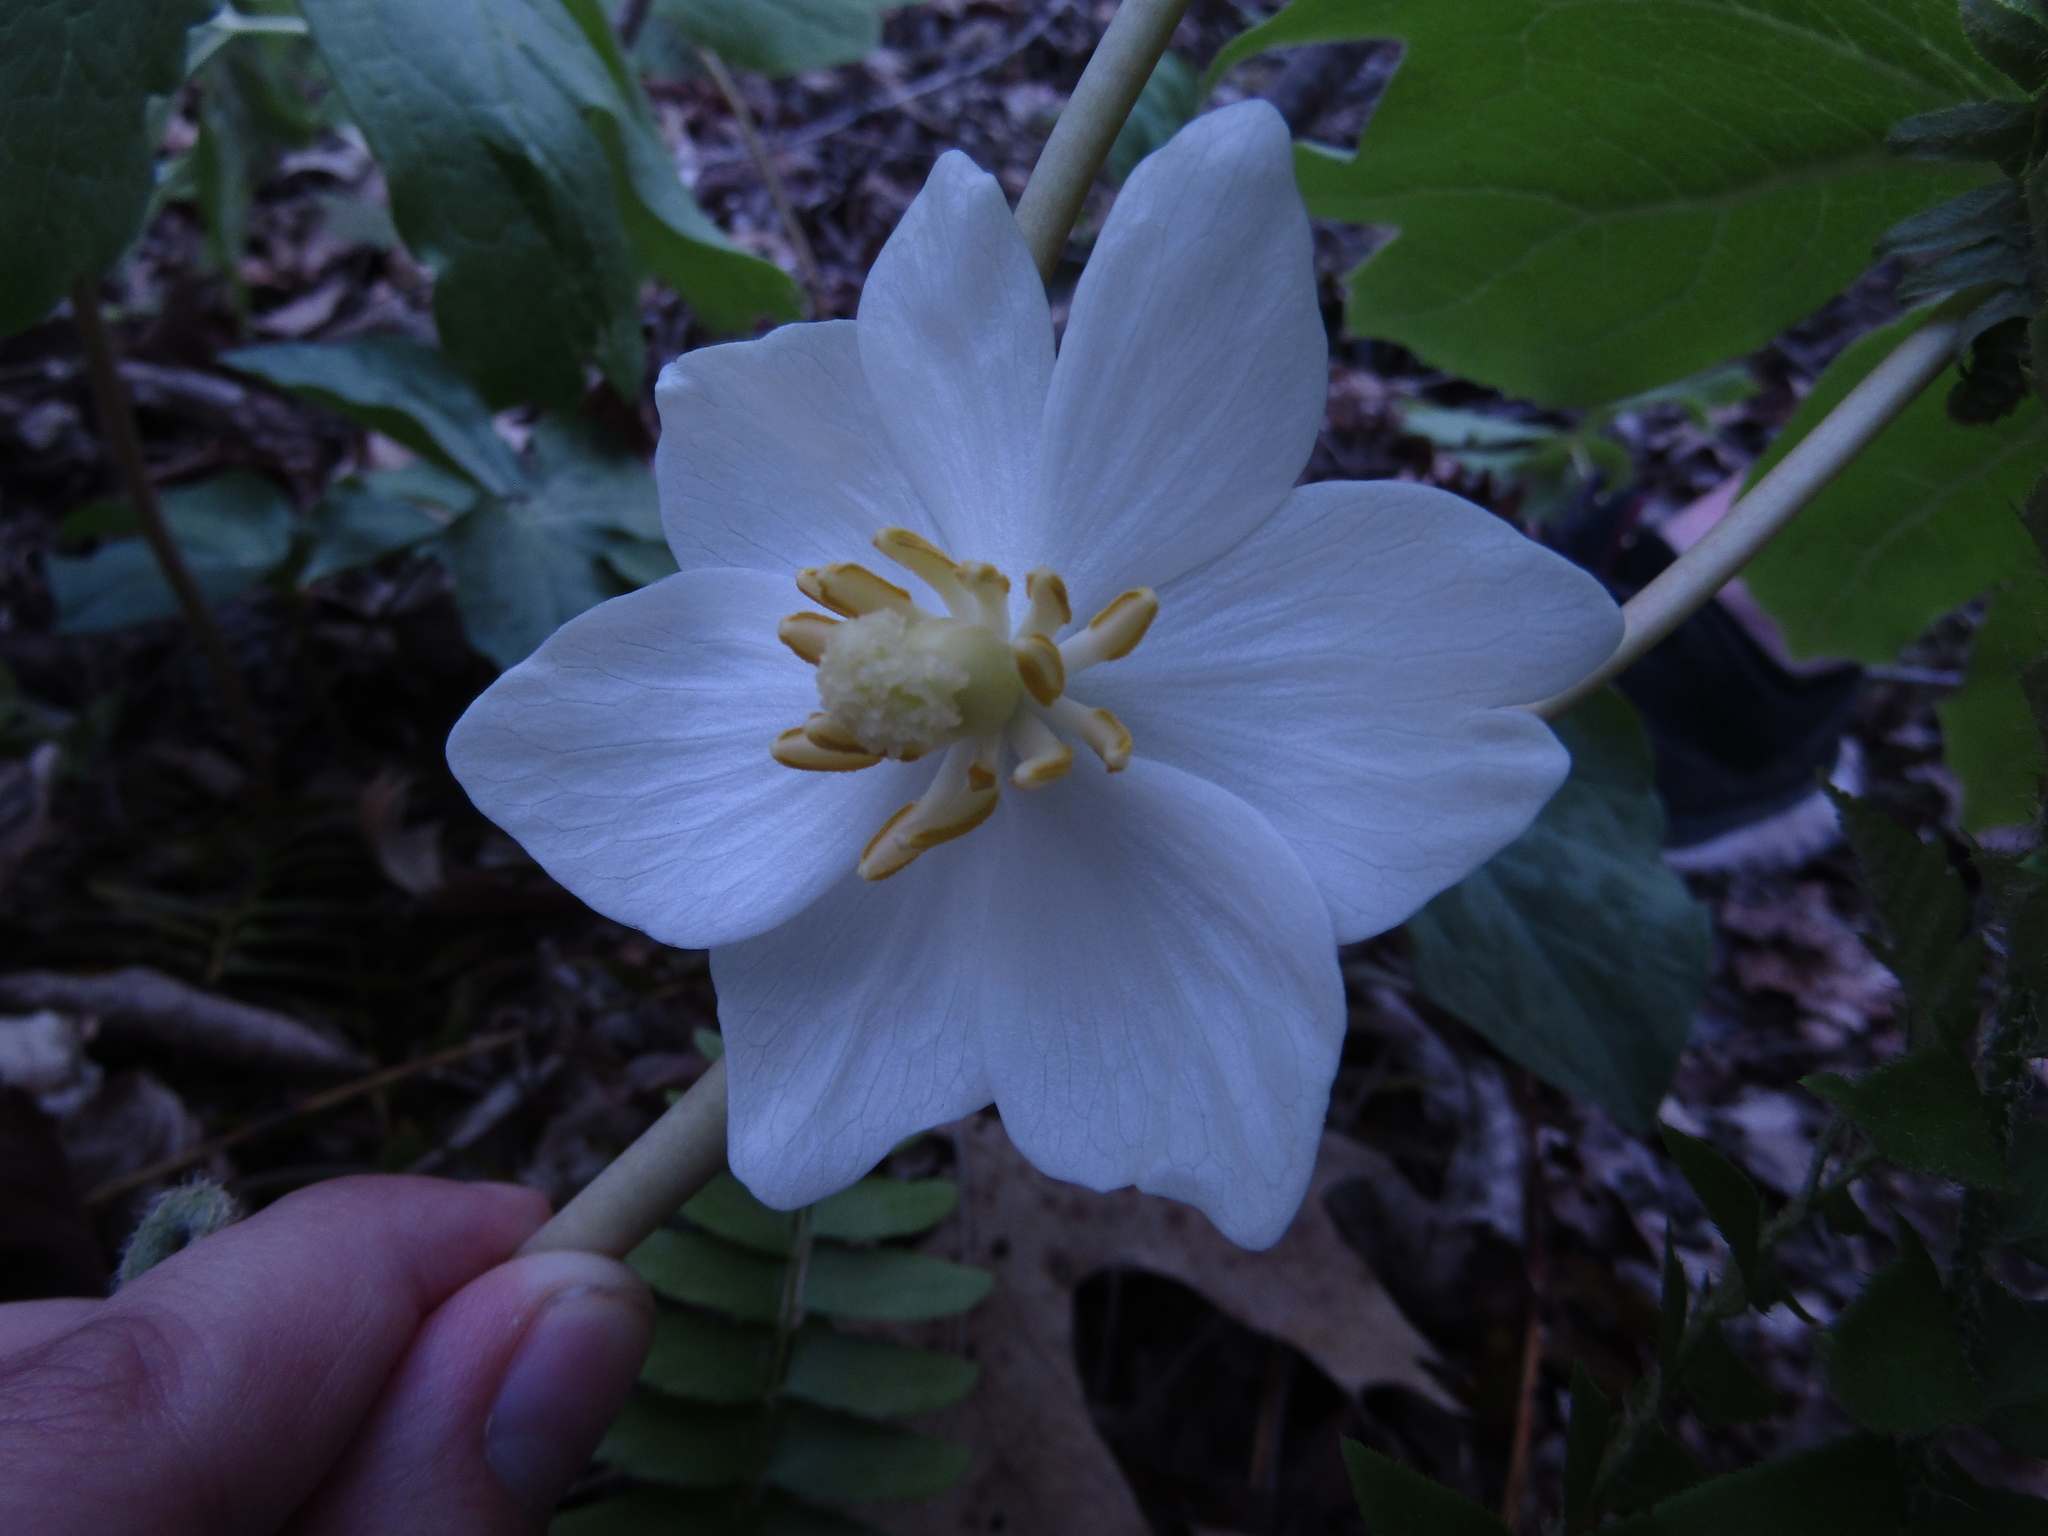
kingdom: Plantae
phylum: Tracheophyta
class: Magnoliopsida
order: Ranunculales
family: Berberidaceae
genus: Podophyllum
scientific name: Podophyllum peltatum
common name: Wild mandrake
